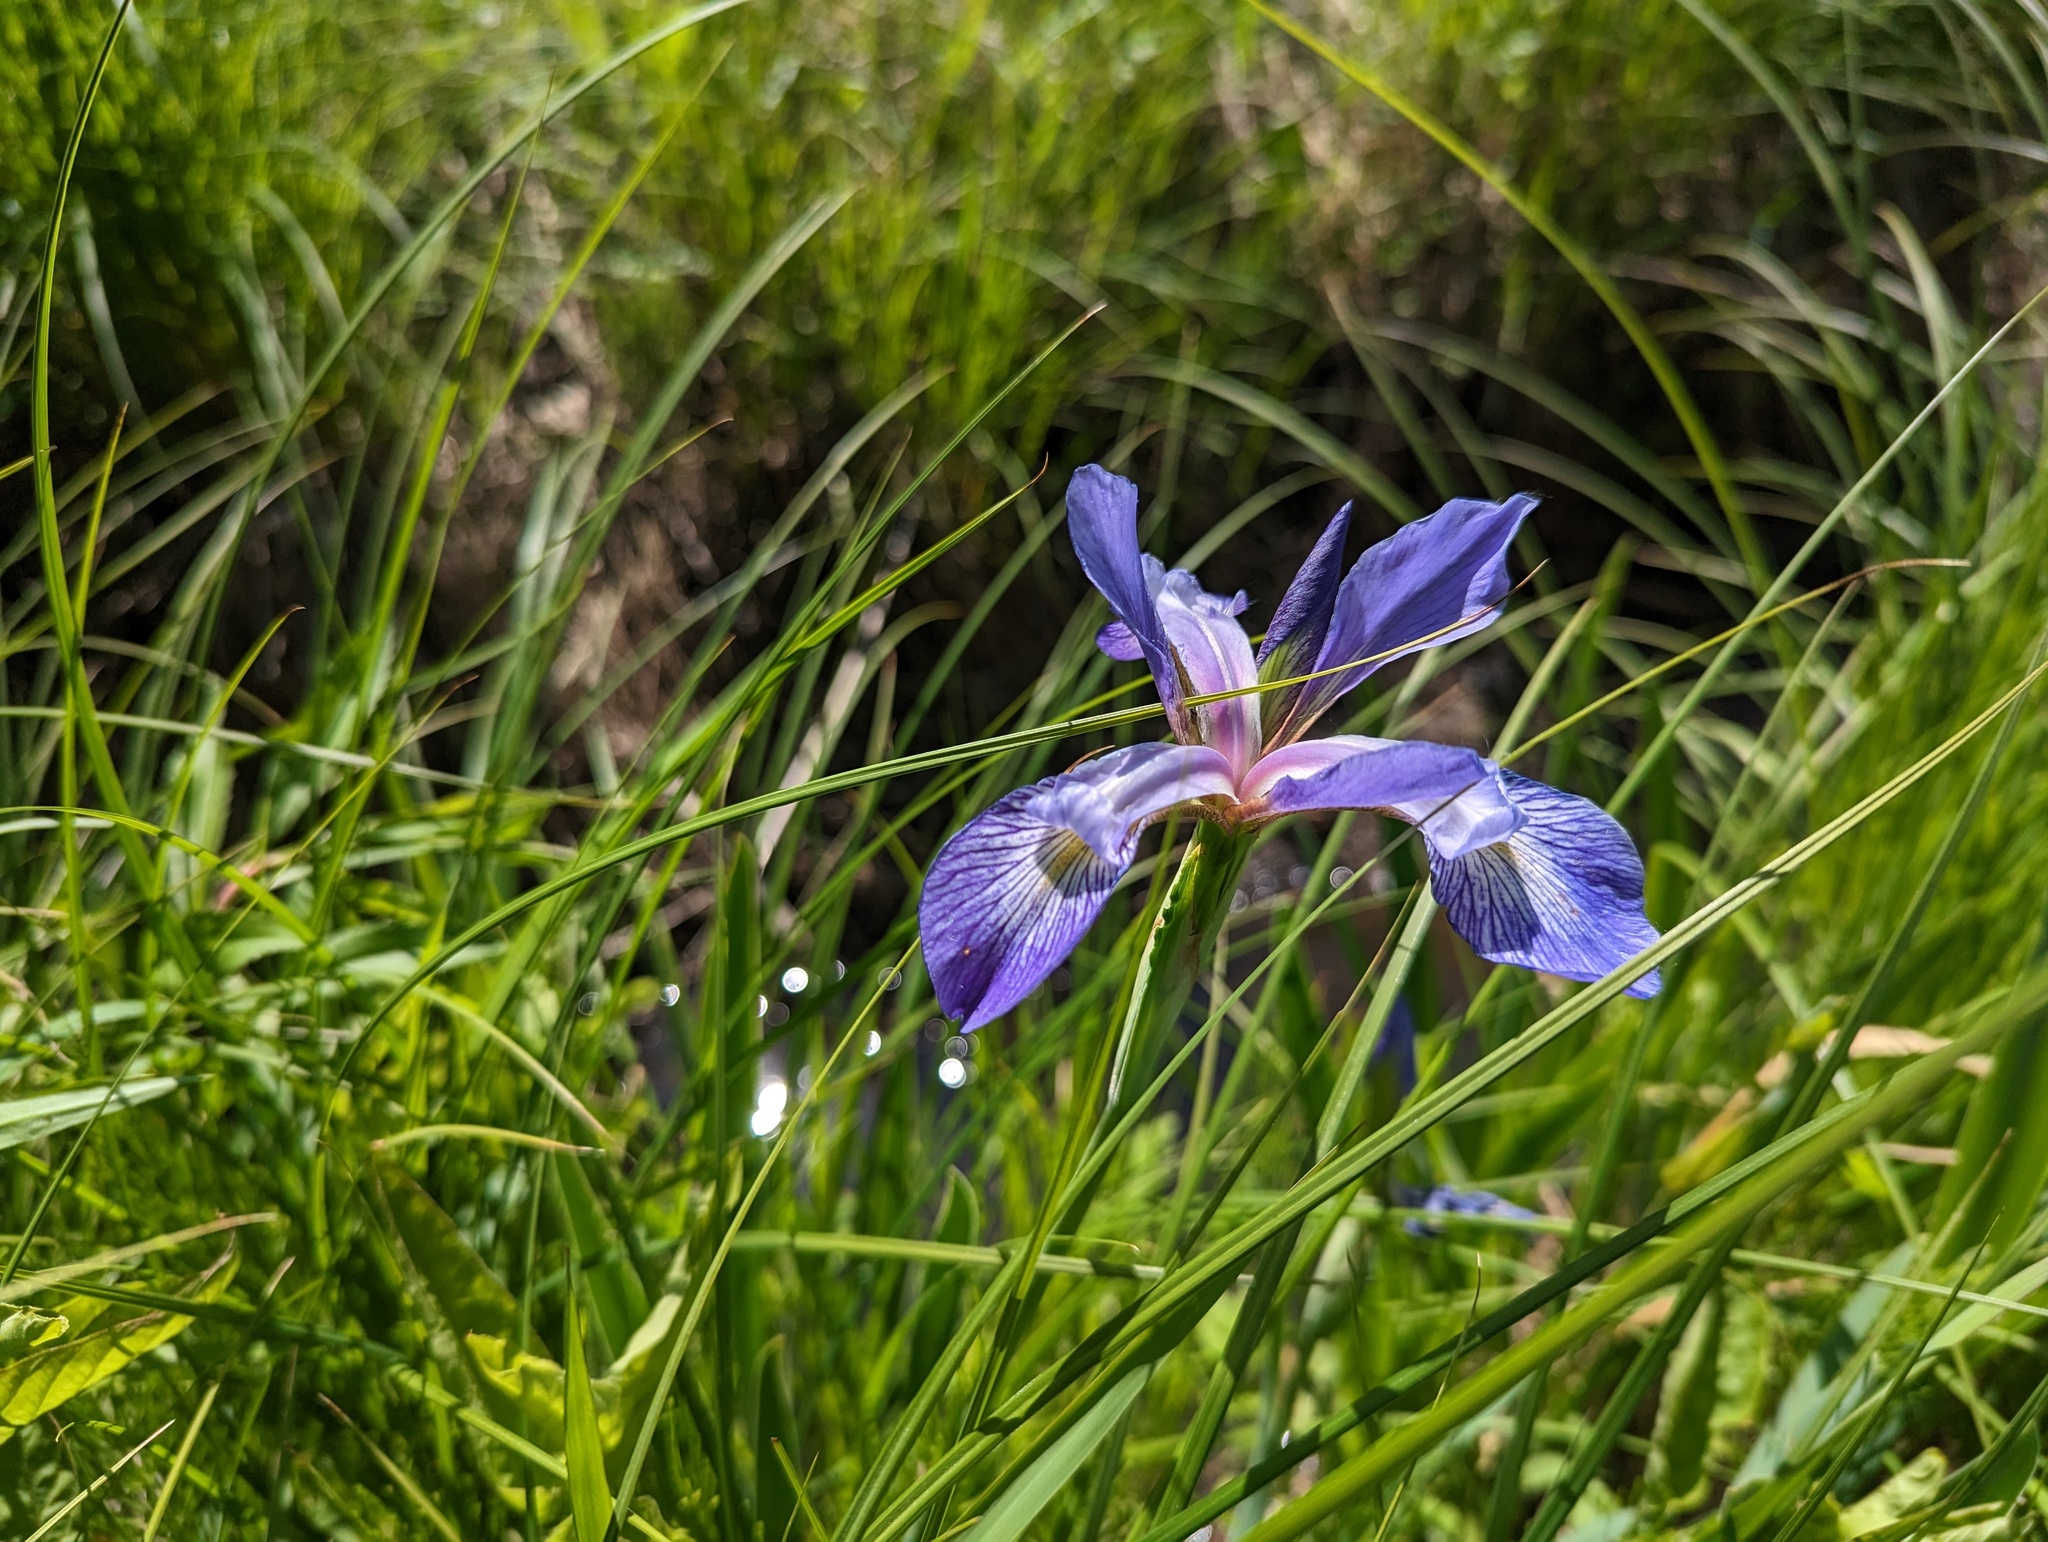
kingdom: Plantae
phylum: Tracheophyta
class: Liliopsida
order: Asparagales
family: Iridaceae
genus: Iris
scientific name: Iris virginica
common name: Southern blue flag
